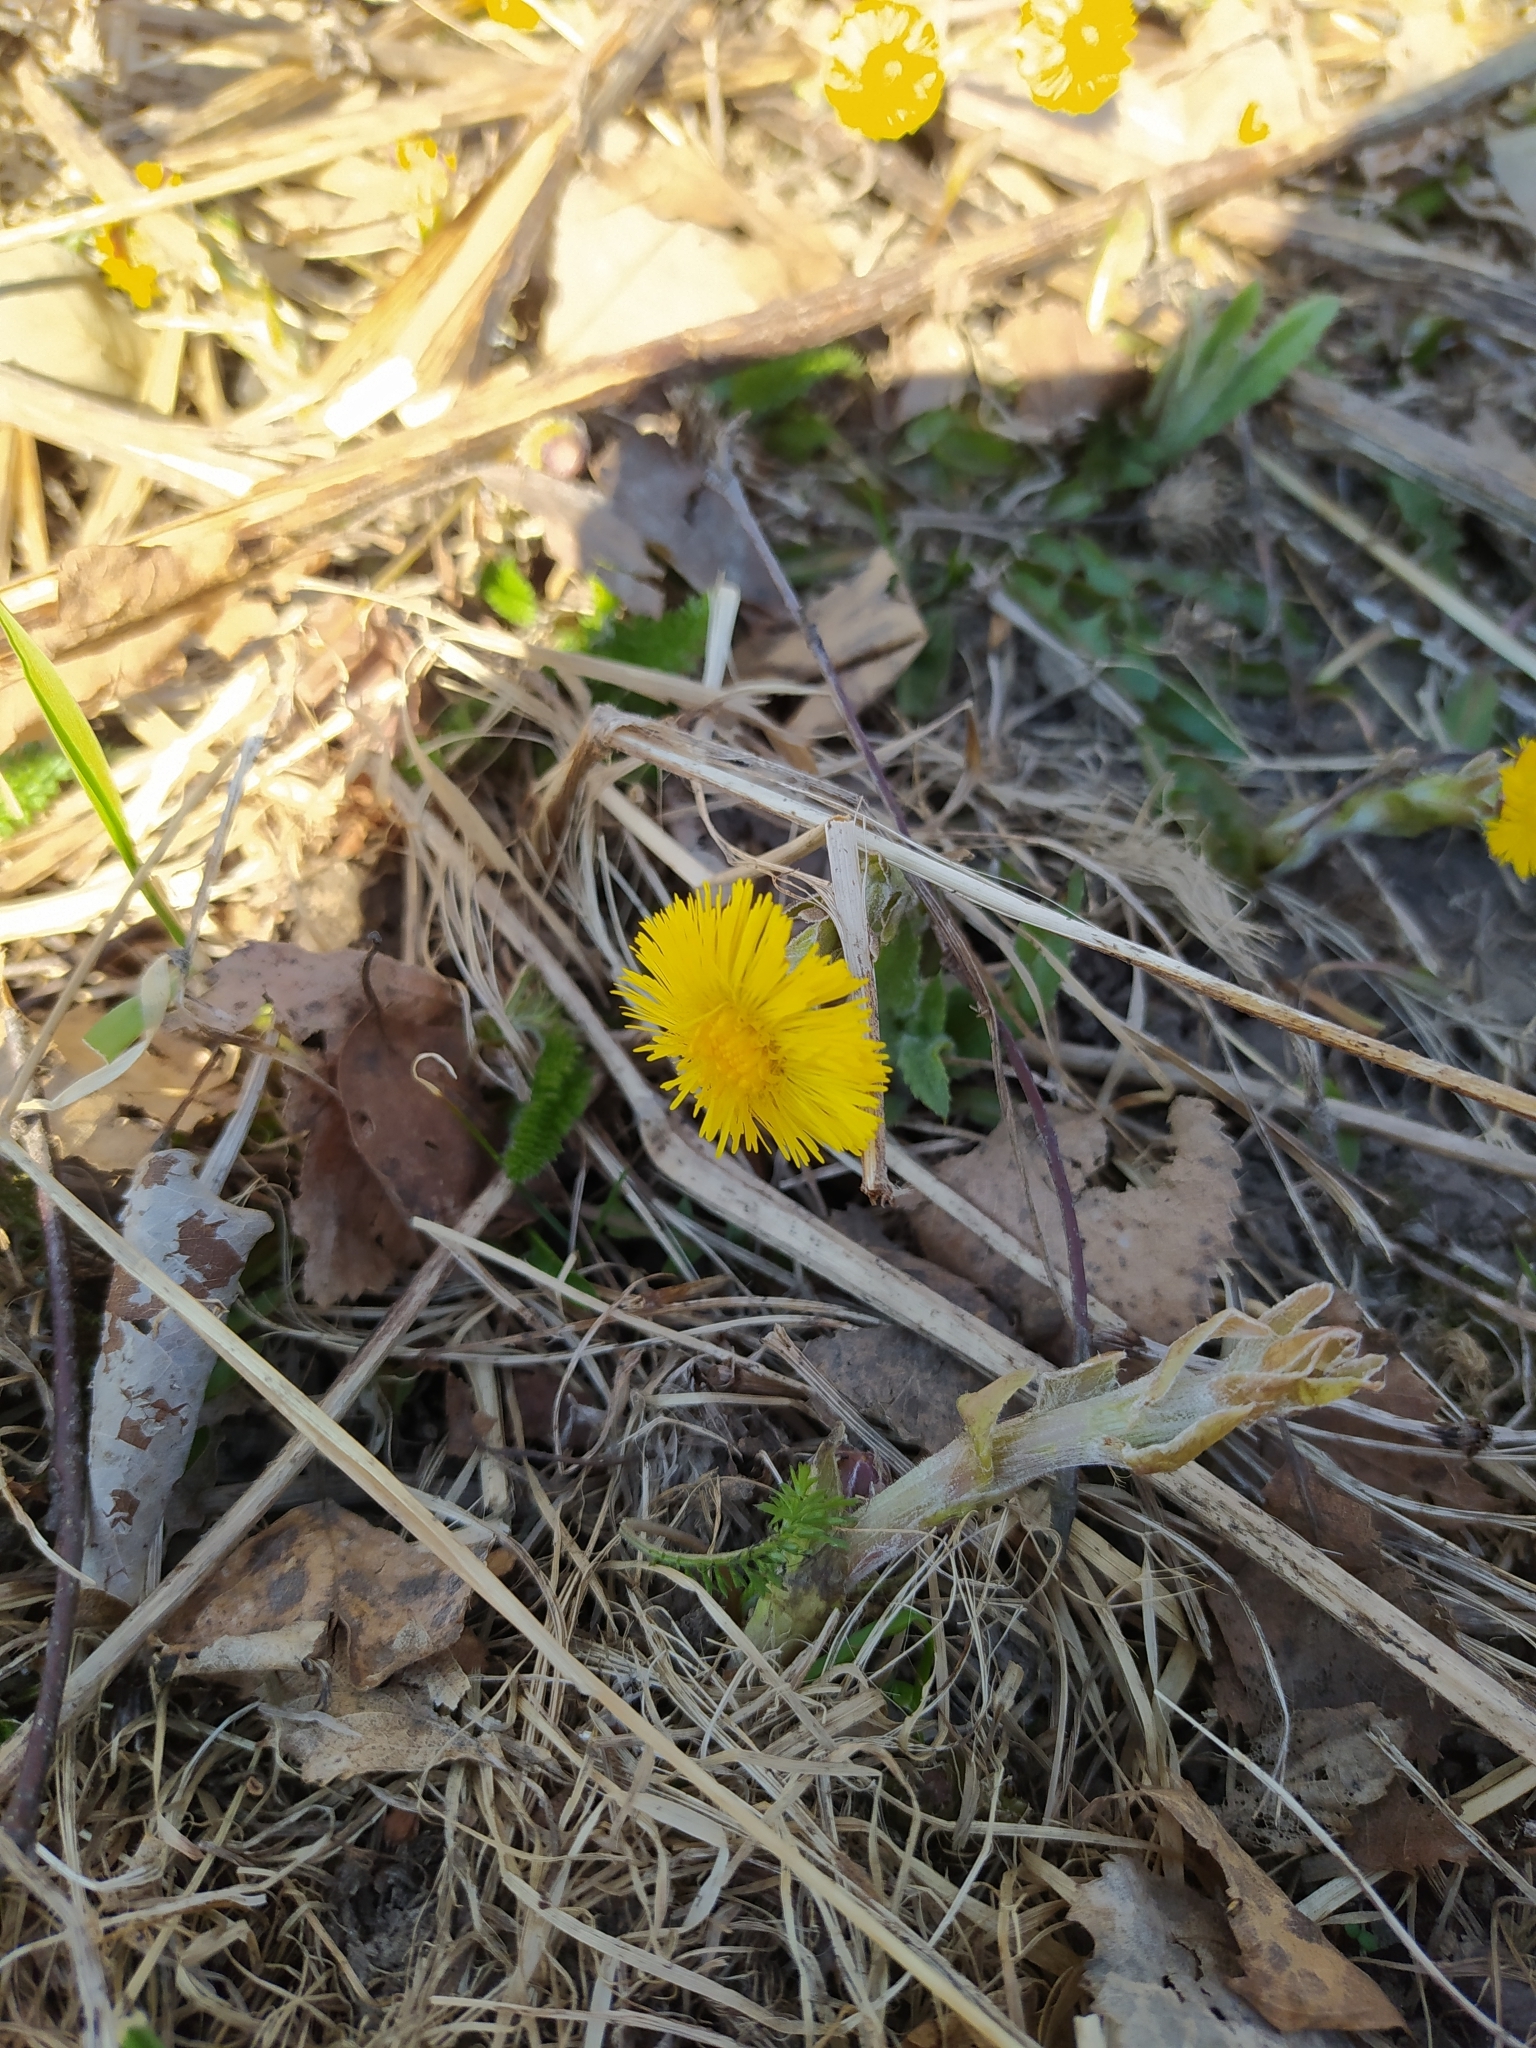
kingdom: Plantae
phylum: Tracheophyta
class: Magnoliopsida
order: Asterales
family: Asteraceae
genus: Tussilago
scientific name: Tussilago farfara
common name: Coltsfoot
